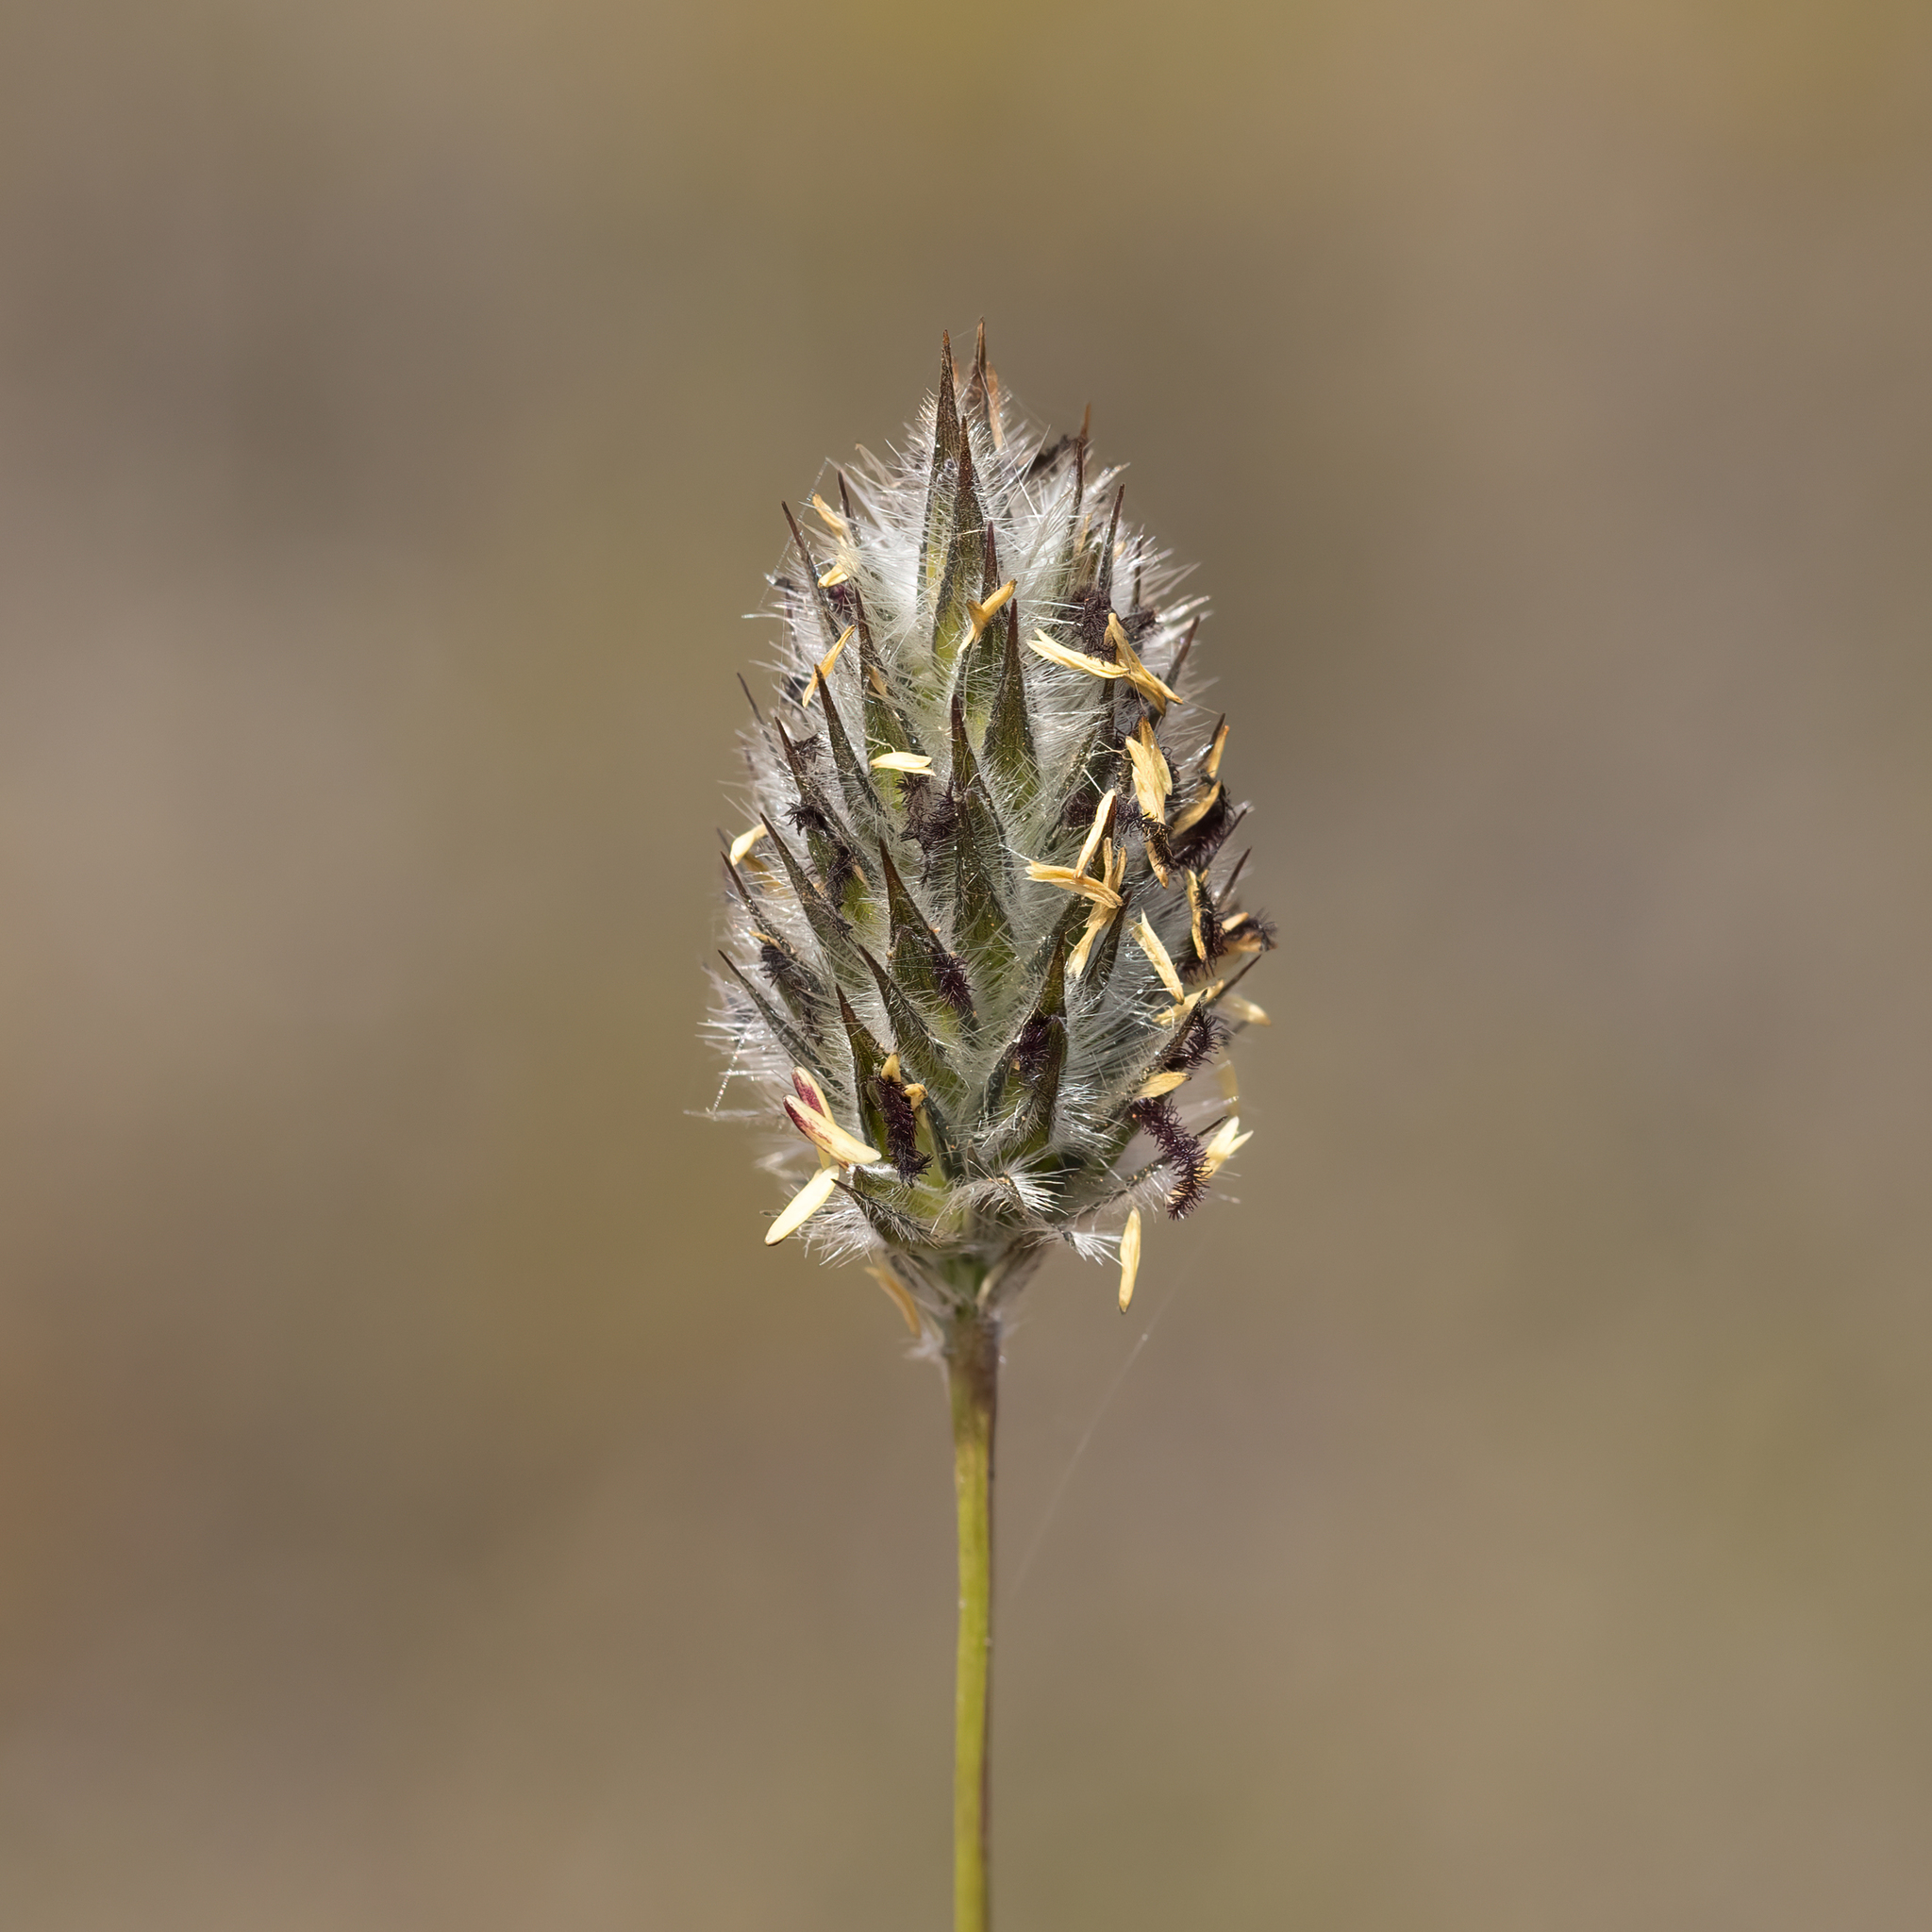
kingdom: Plantae
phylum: Tracheophyta
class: Liliopsida
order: Poales
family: Poaceae
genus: Neurachne
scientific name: Neurachne alopecuroidea
